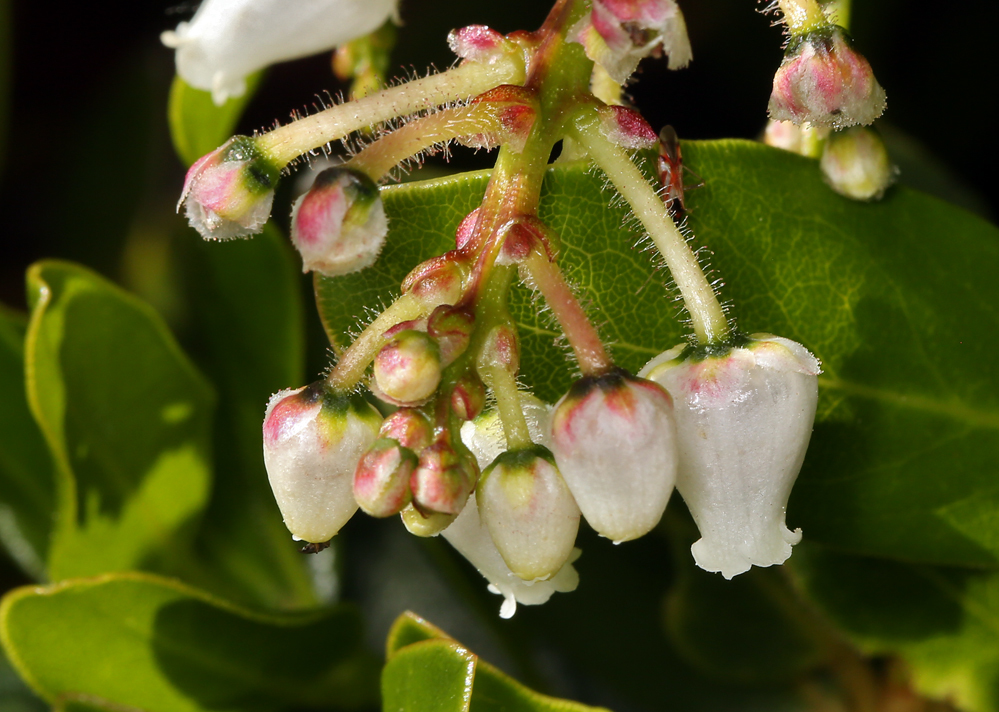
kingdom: Plantae
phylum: Tracheophyta
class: Magnoliopsida
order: Ericales
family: Ericaceae
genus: Arctostaphylos
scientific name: Arctostaphylos insularis
